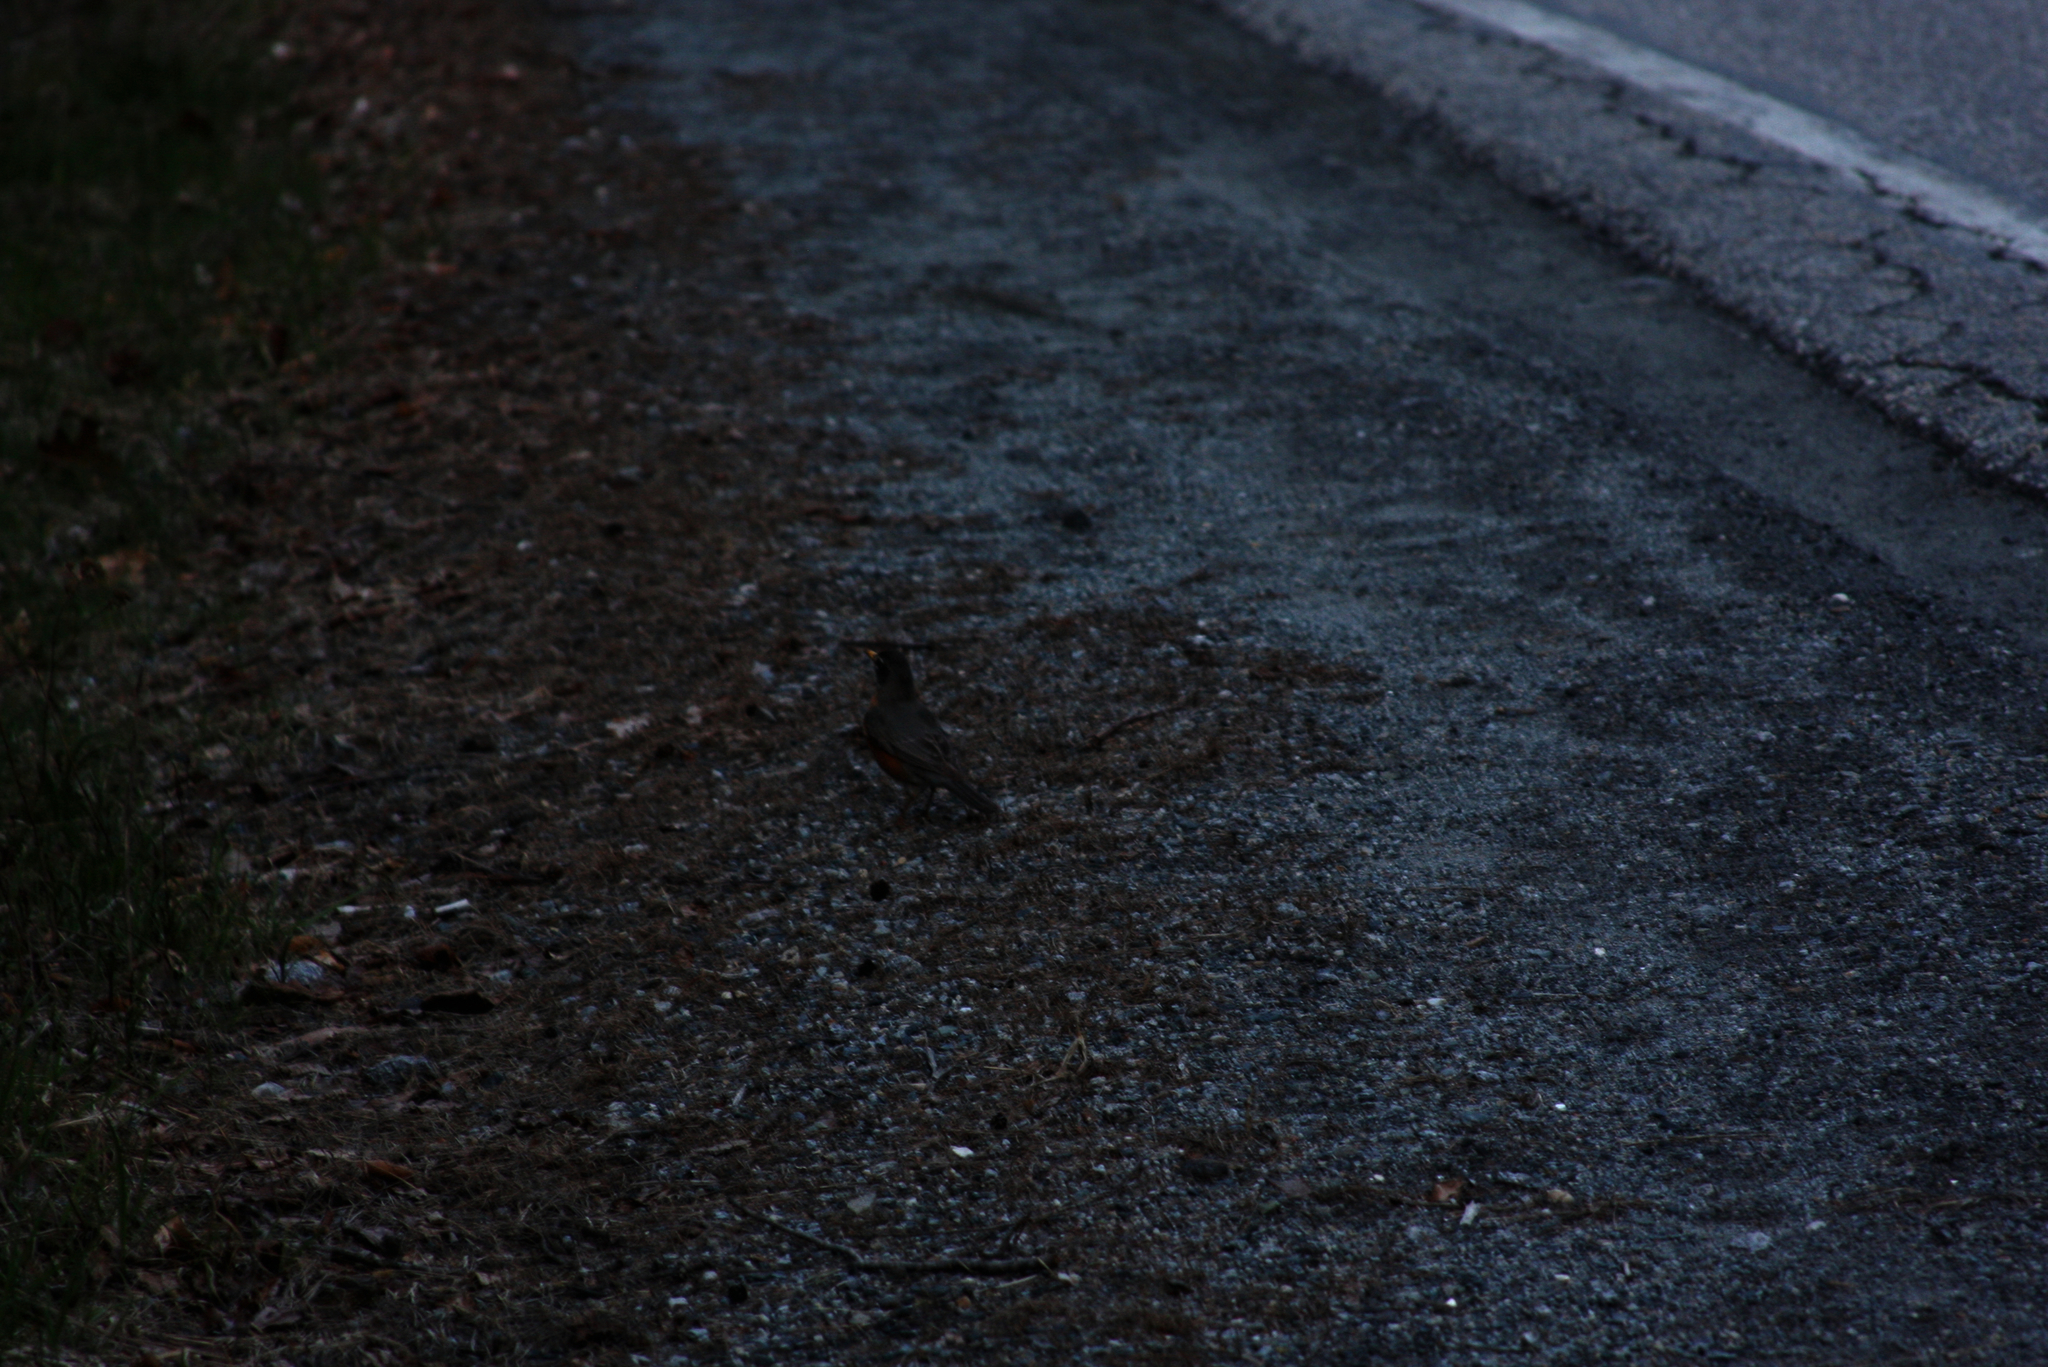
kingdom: Animalia
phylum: Chordata
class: Aves
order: Passeriformes
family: Turdidae
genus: Turdus
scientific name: Turdus migratorius
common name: American robin
